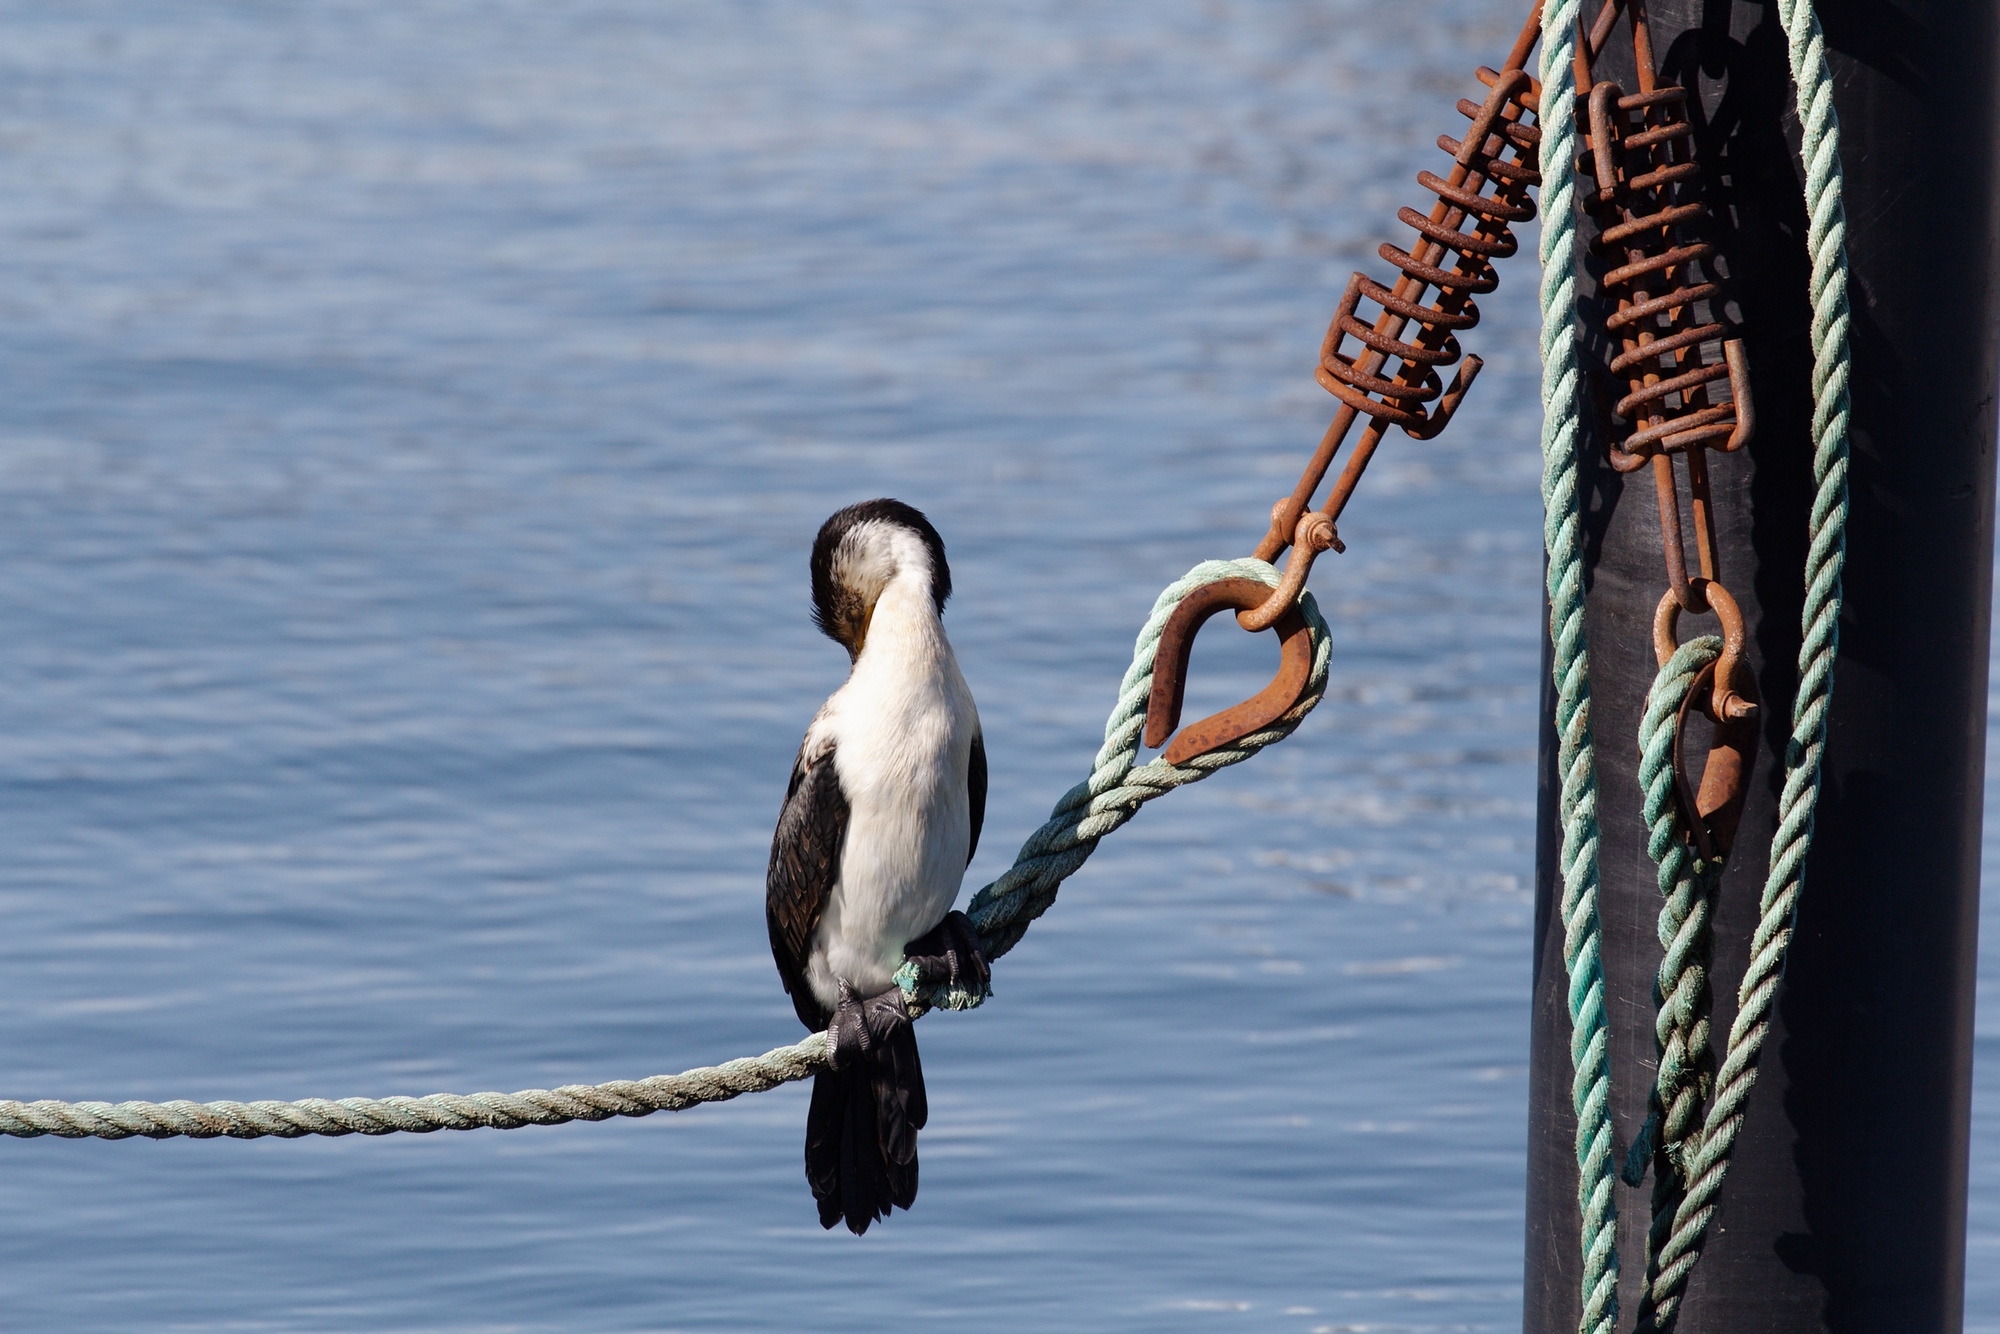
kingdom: Animalia
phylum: Chordata
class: Aves
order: Suliformes
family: Phalacrocoracidae
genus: Microcarbo
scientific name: Microcarbo melanoleucos
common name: Little pied cormorant
